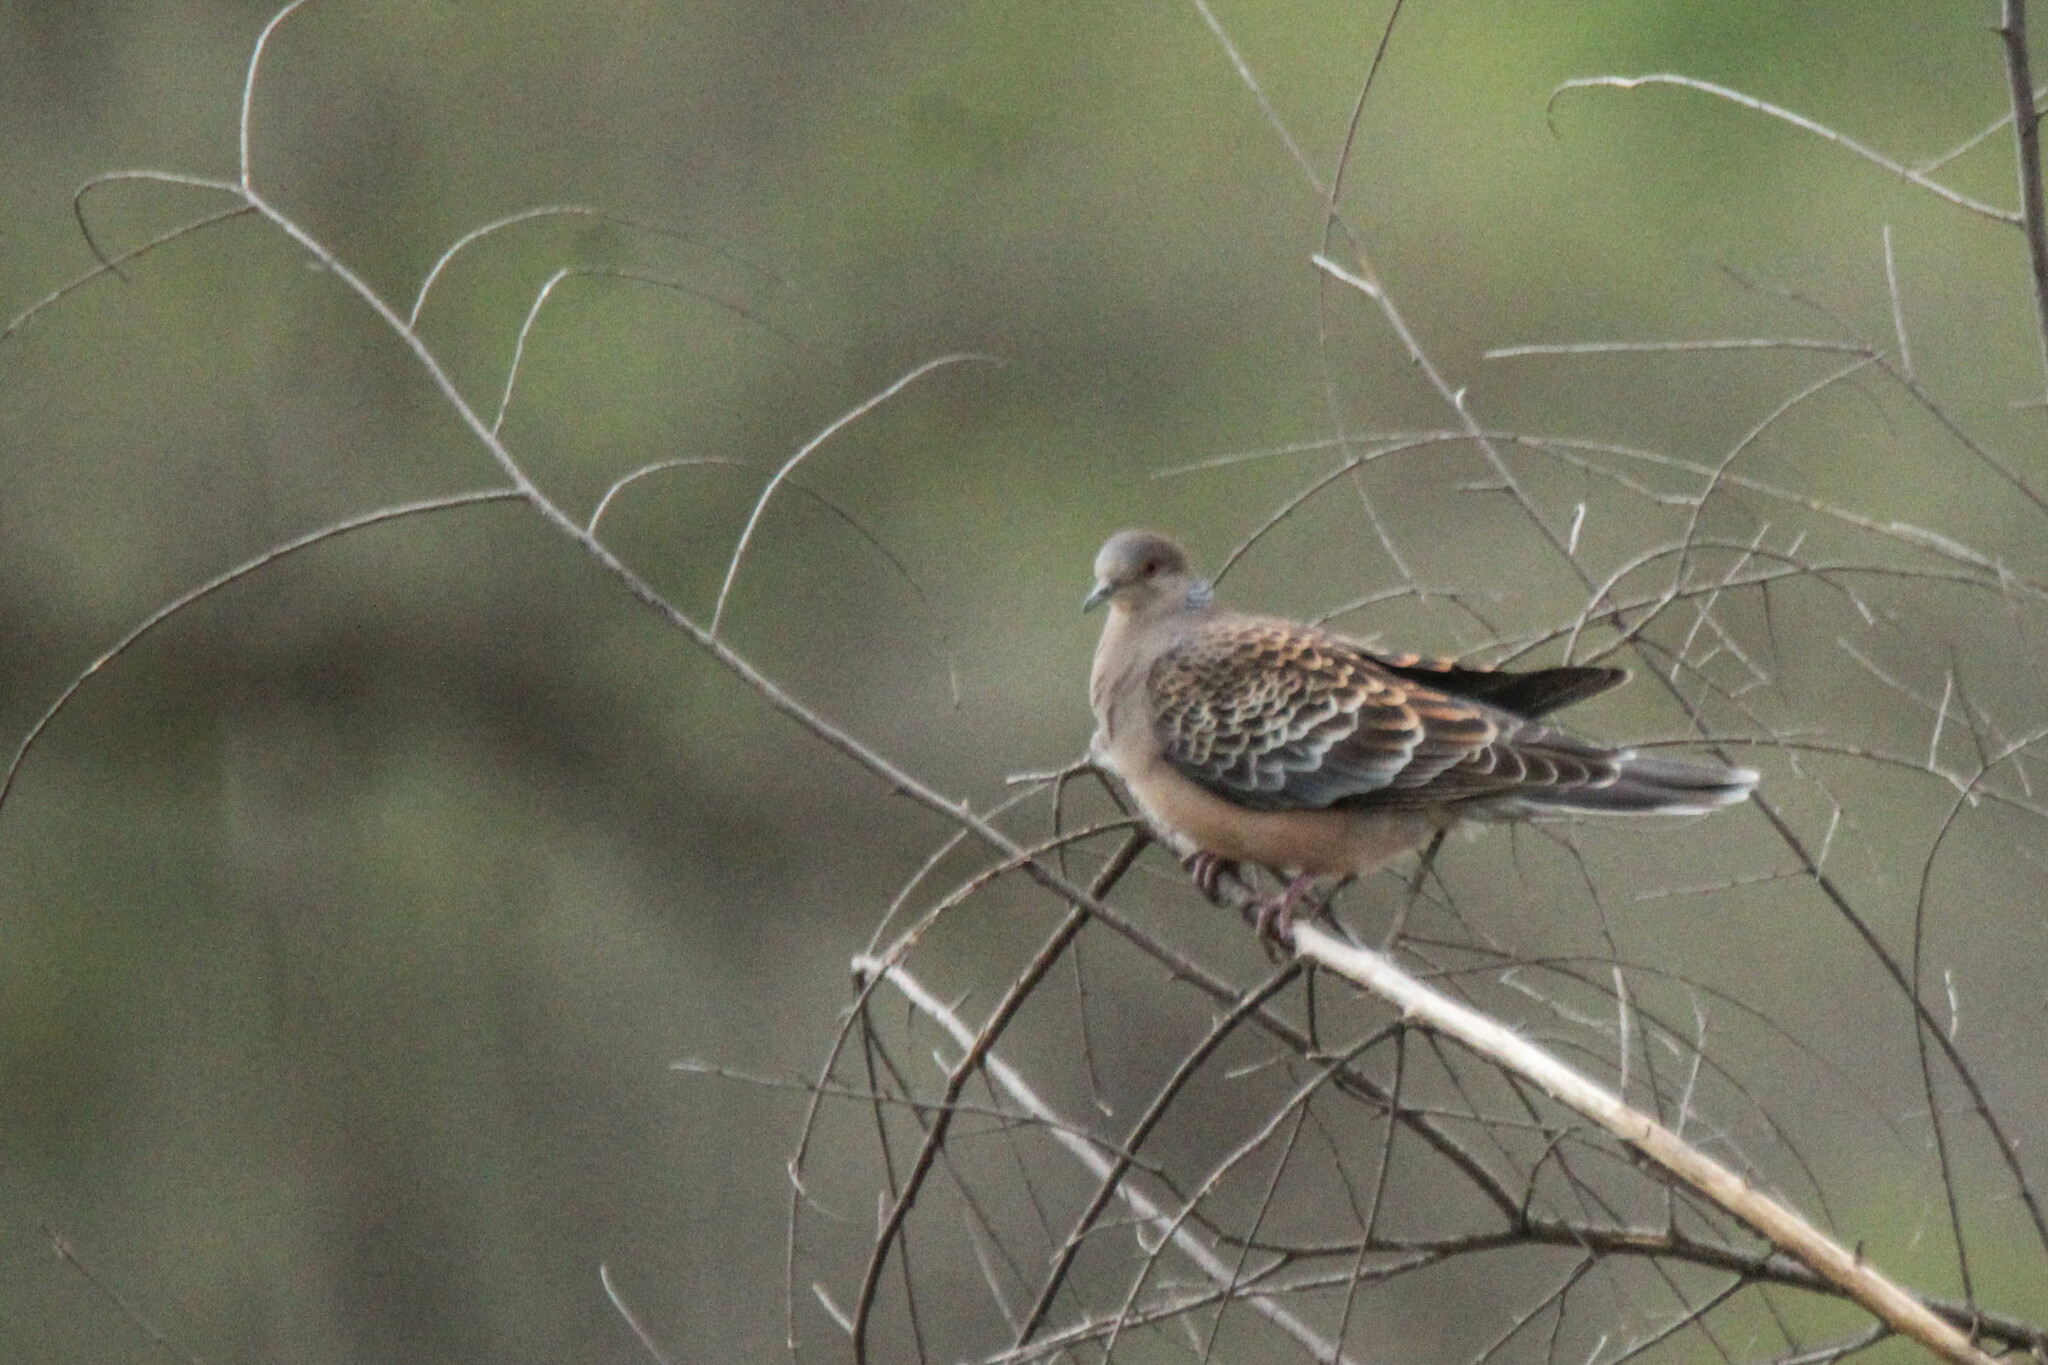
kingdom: Animalia
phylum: Chordata
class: Aves
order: Columbiformes
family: Columbidae
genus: Streptopelia
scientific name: Streptopelia orientalis
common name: Oriental turtle dove
